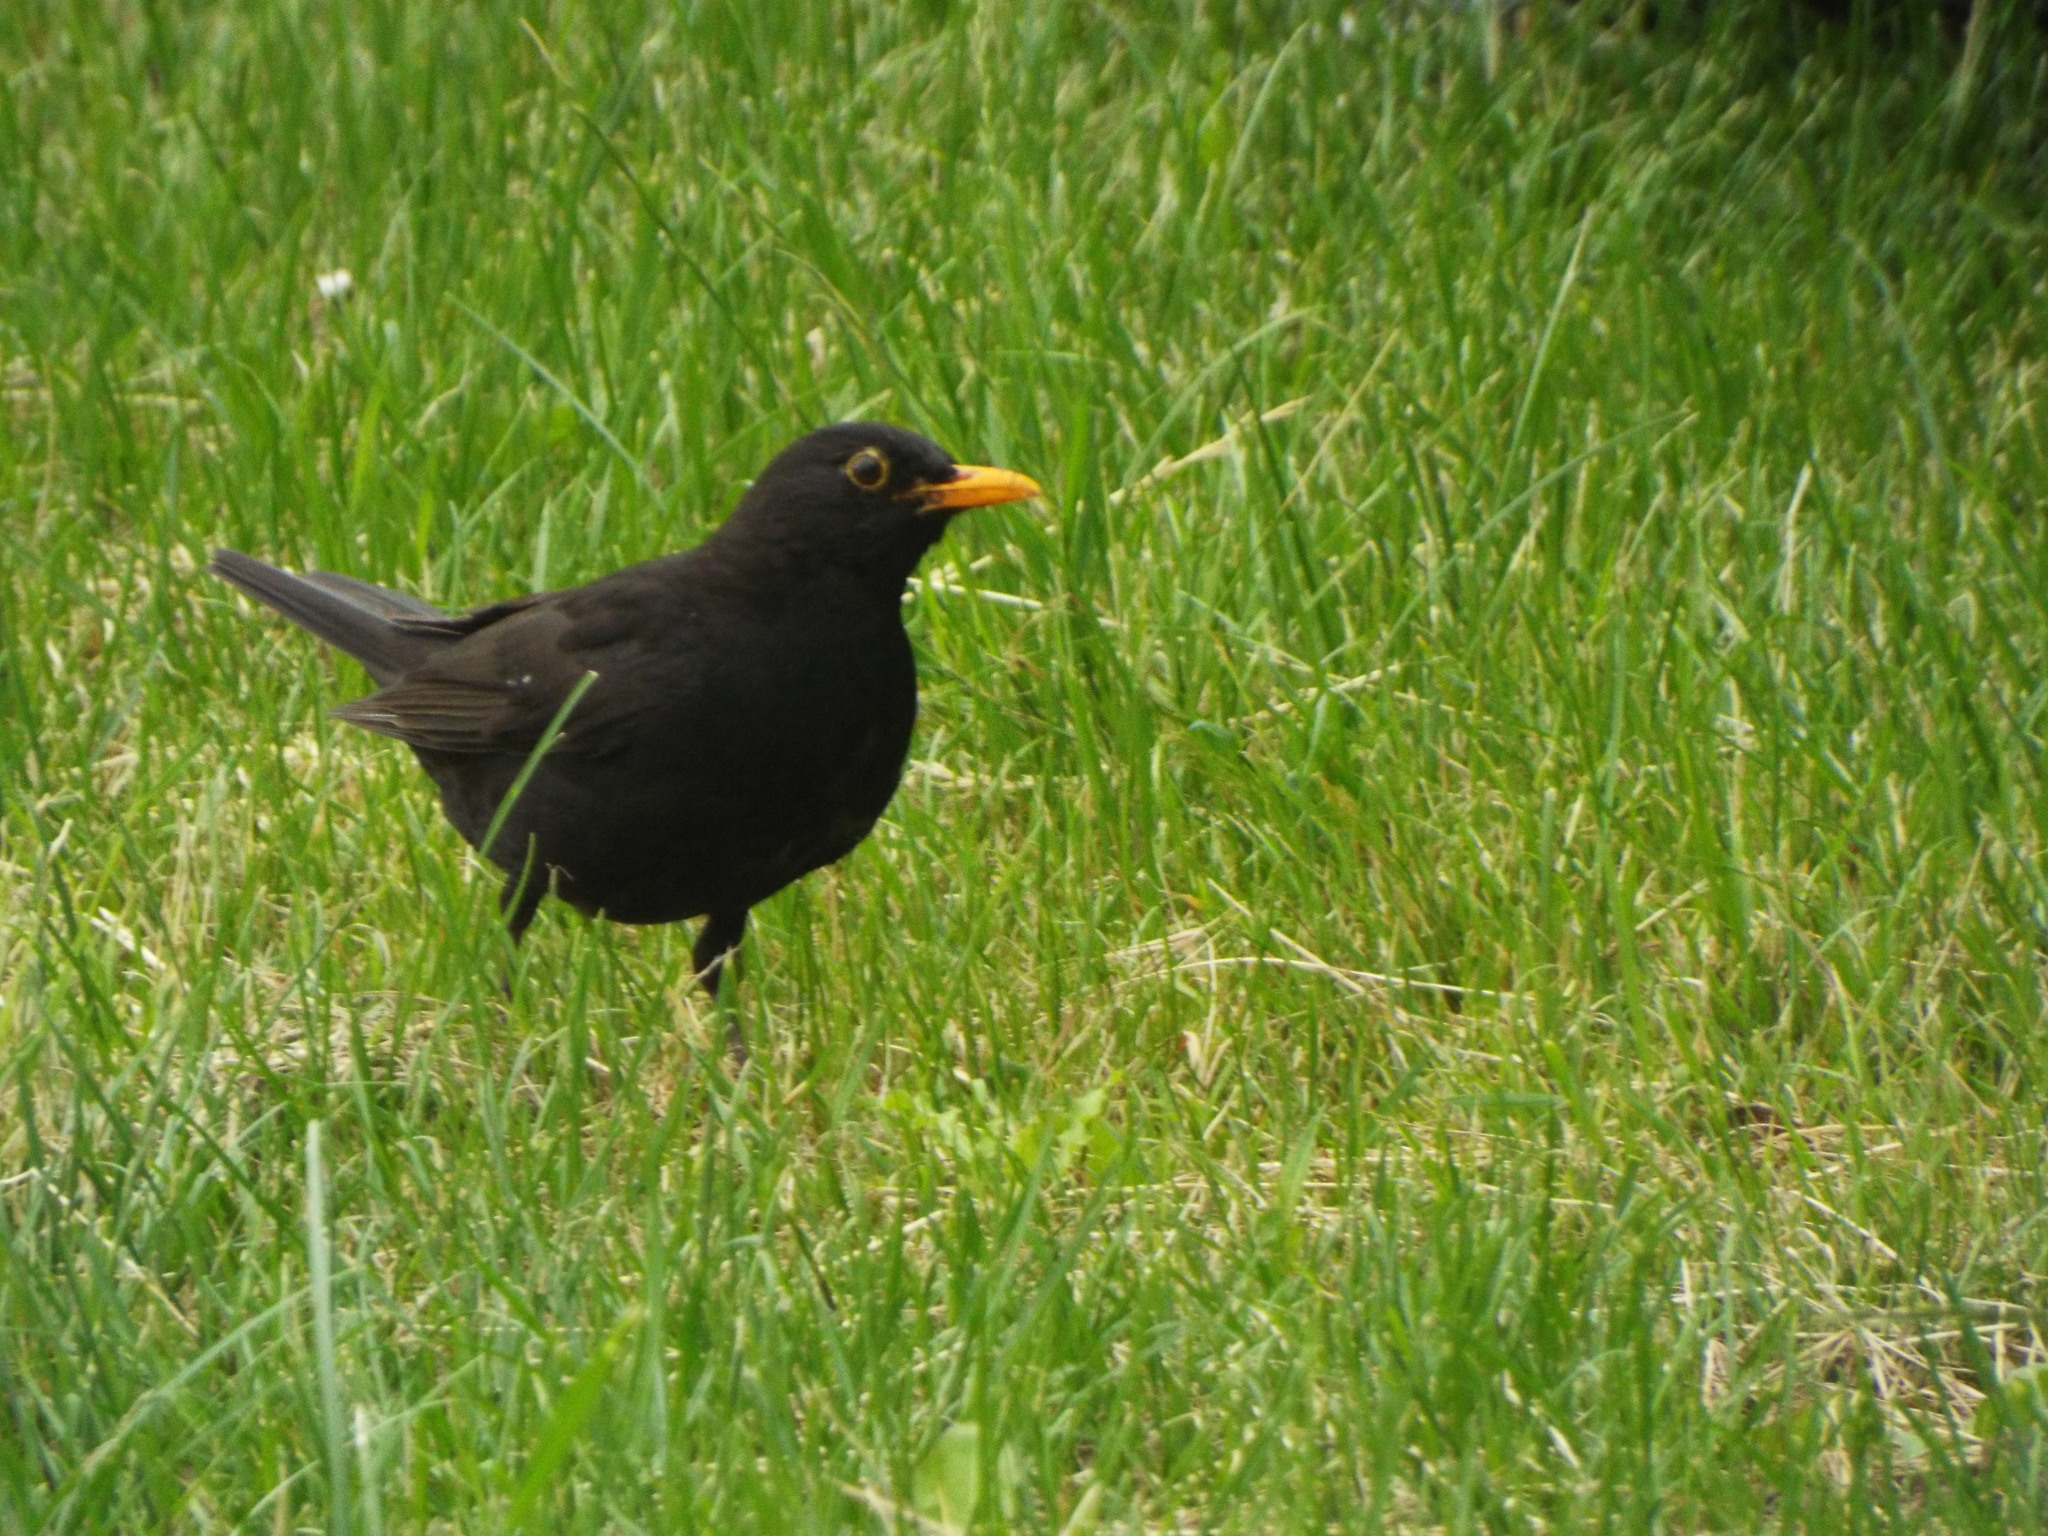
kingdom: Animalia
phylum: Chordata
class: Aves
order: Passeriformes
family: Turdidae
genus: Turdus
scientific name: Turdus merula
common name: Common blackbird
